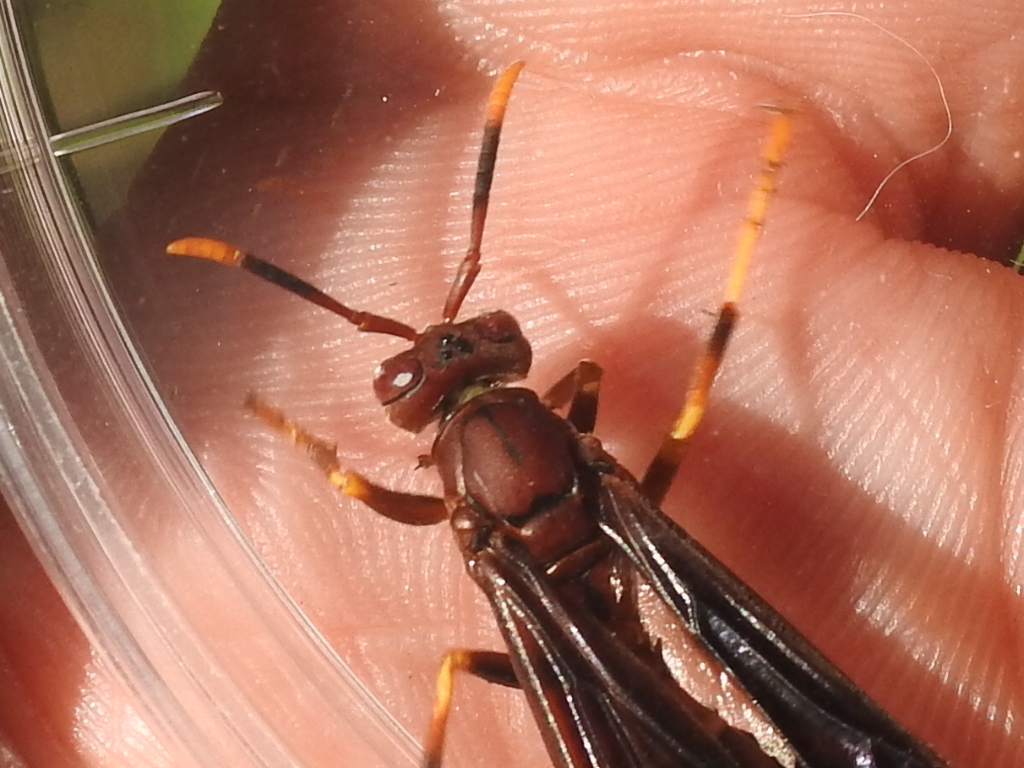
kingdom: Animalia
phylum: Arthropoda
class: Insecta
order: Hymenoptera
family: Eumenidae
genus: Polistes
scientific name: Polistes annularis
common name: Ringed paper wasp
